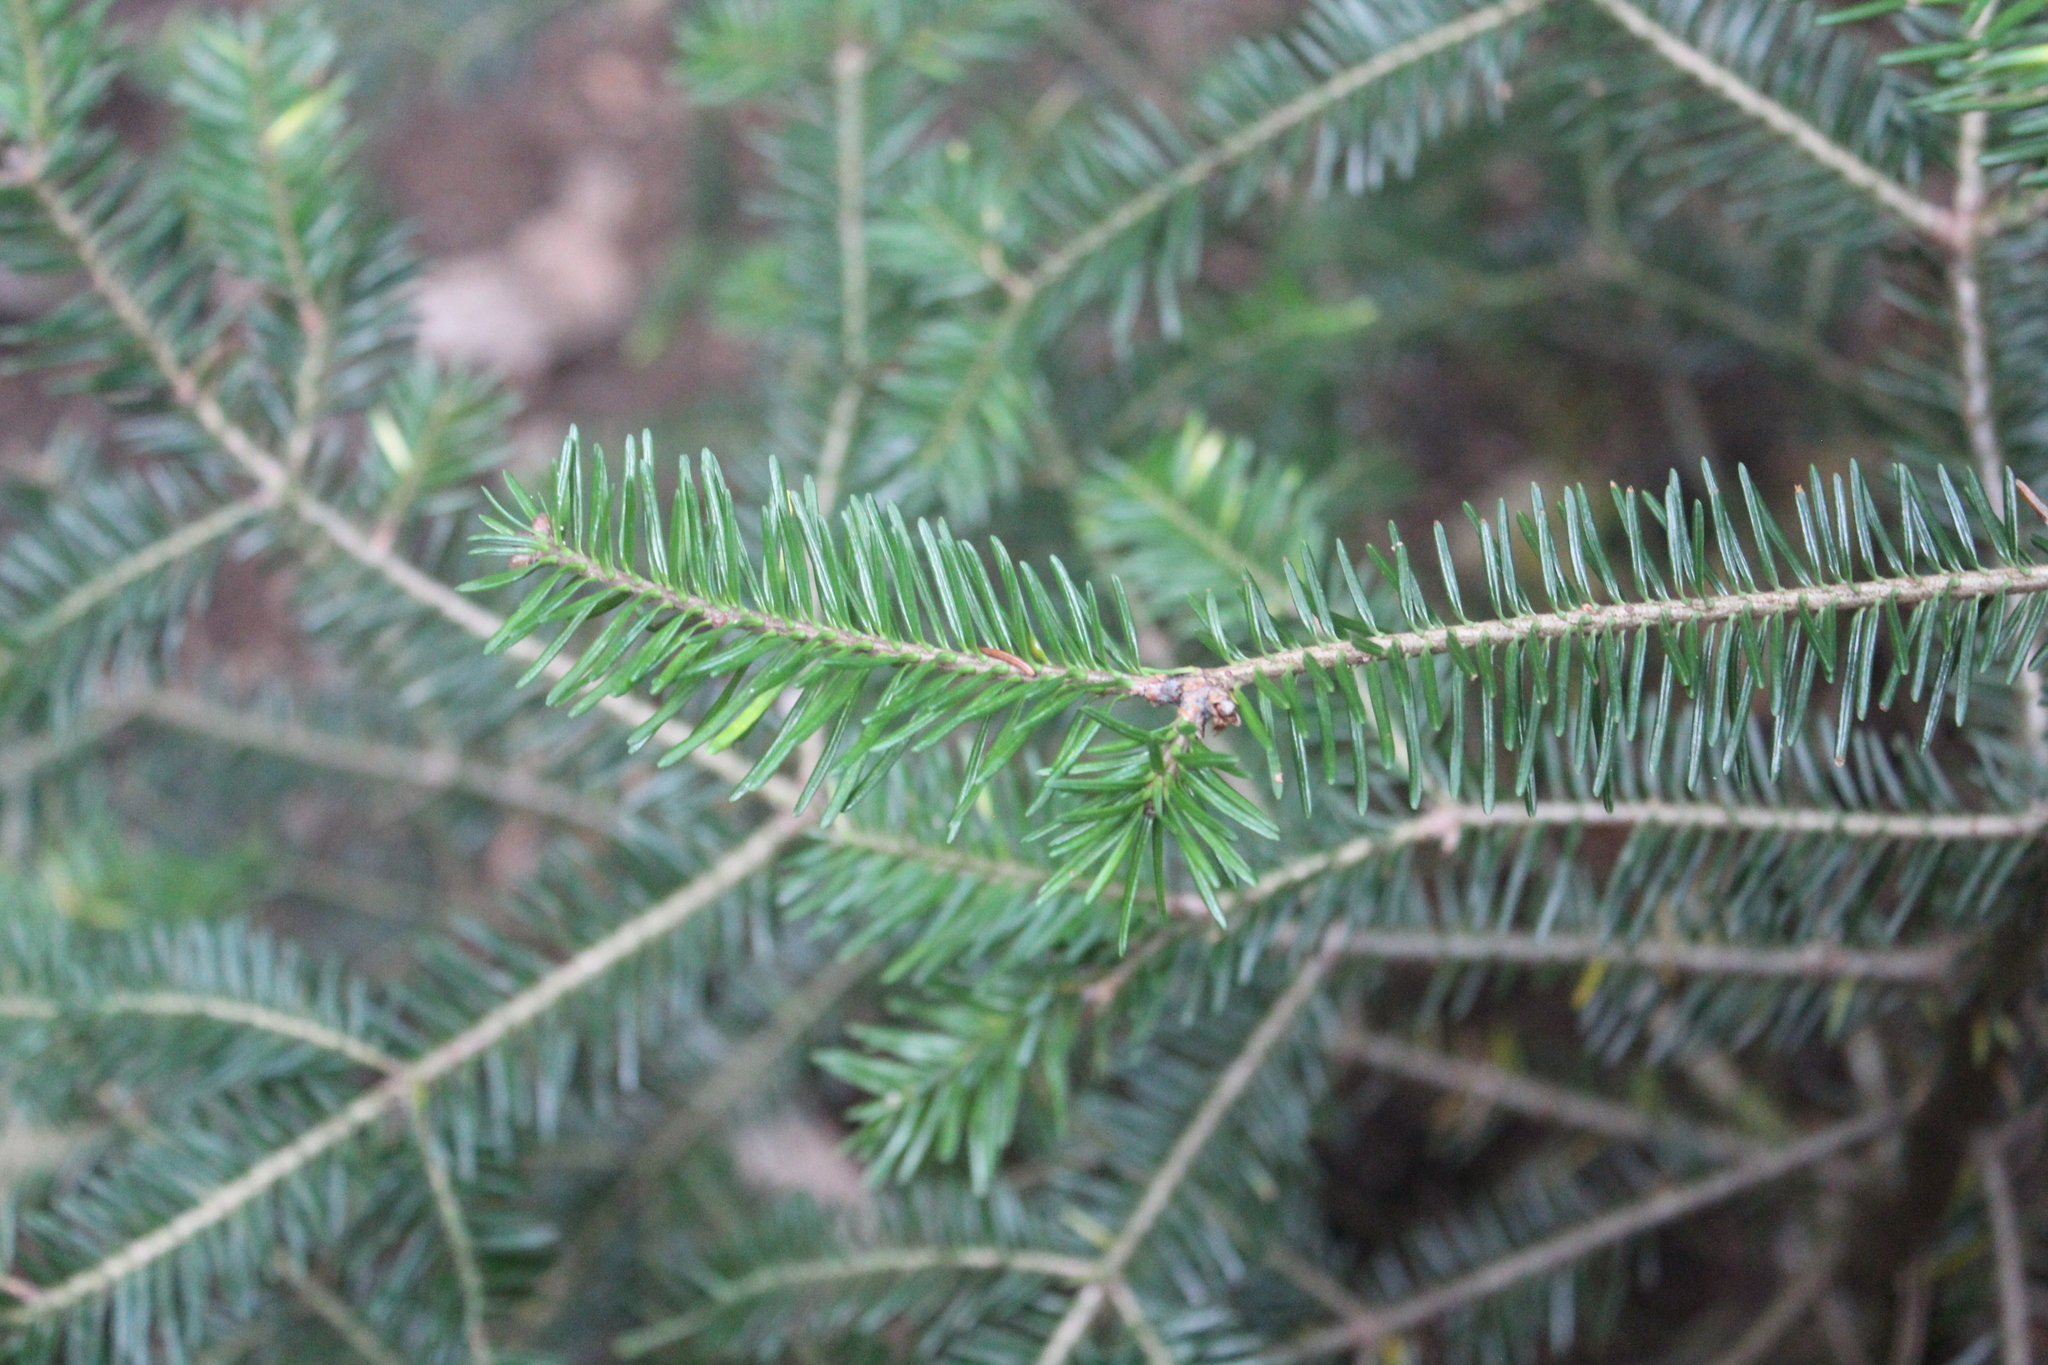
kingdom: Plantae
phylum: Tracheophyta
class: Pinopsida
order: Pinales
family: Pinaceae
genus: Abies
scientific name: Abies balsamea
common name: Balsam fir
